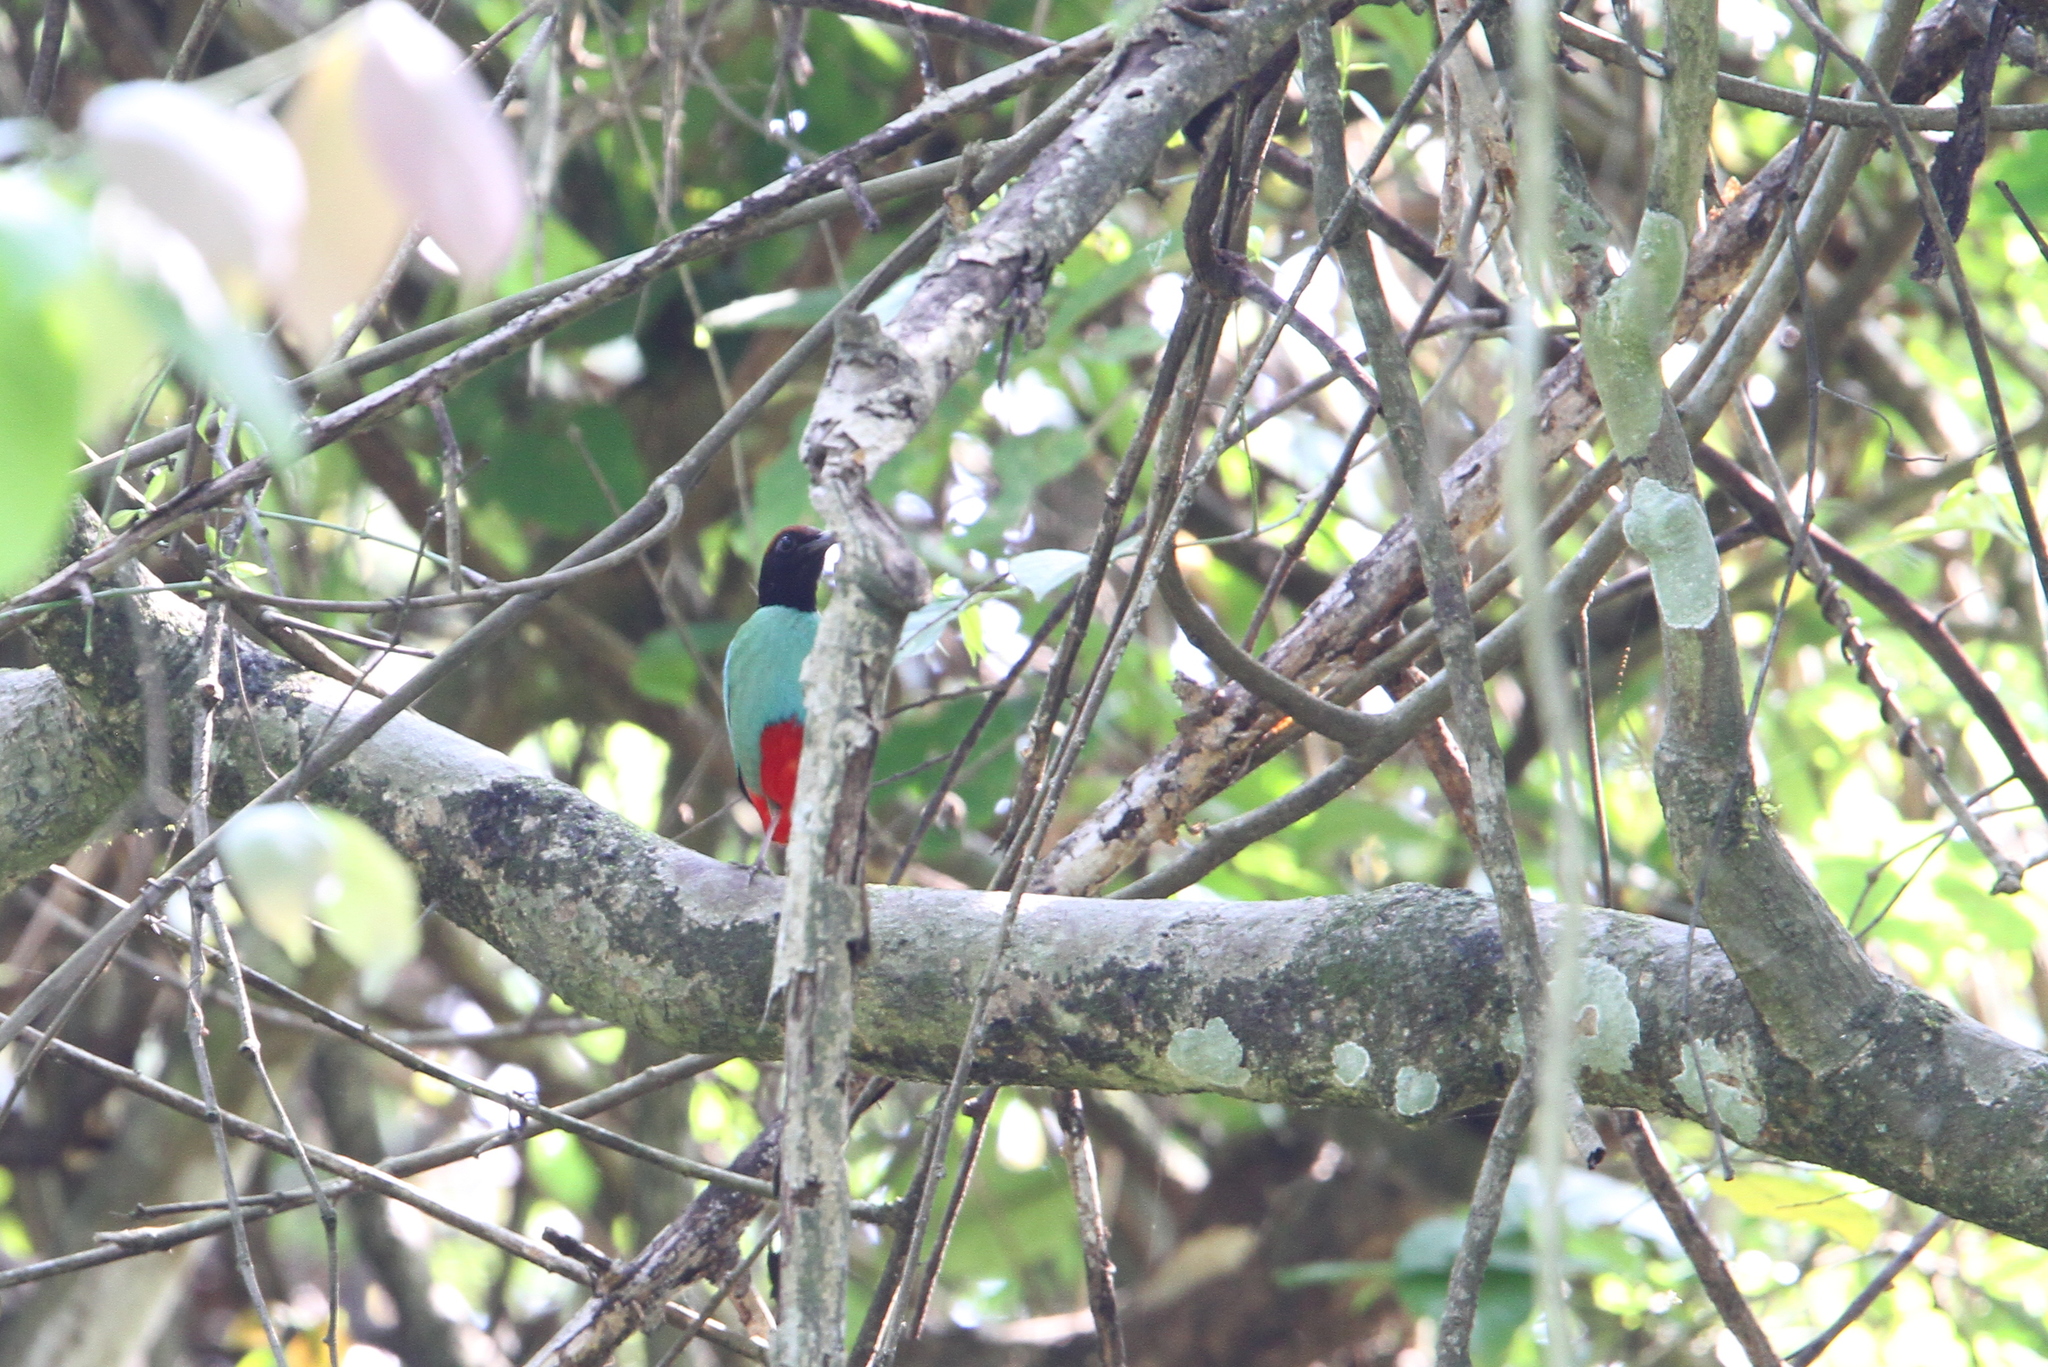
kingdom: Animalia
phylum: Chordata
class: Aves
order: Passeriformes
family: Pittidae
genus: Pitta
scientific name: Pitta sordida
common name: Hooded pitta
